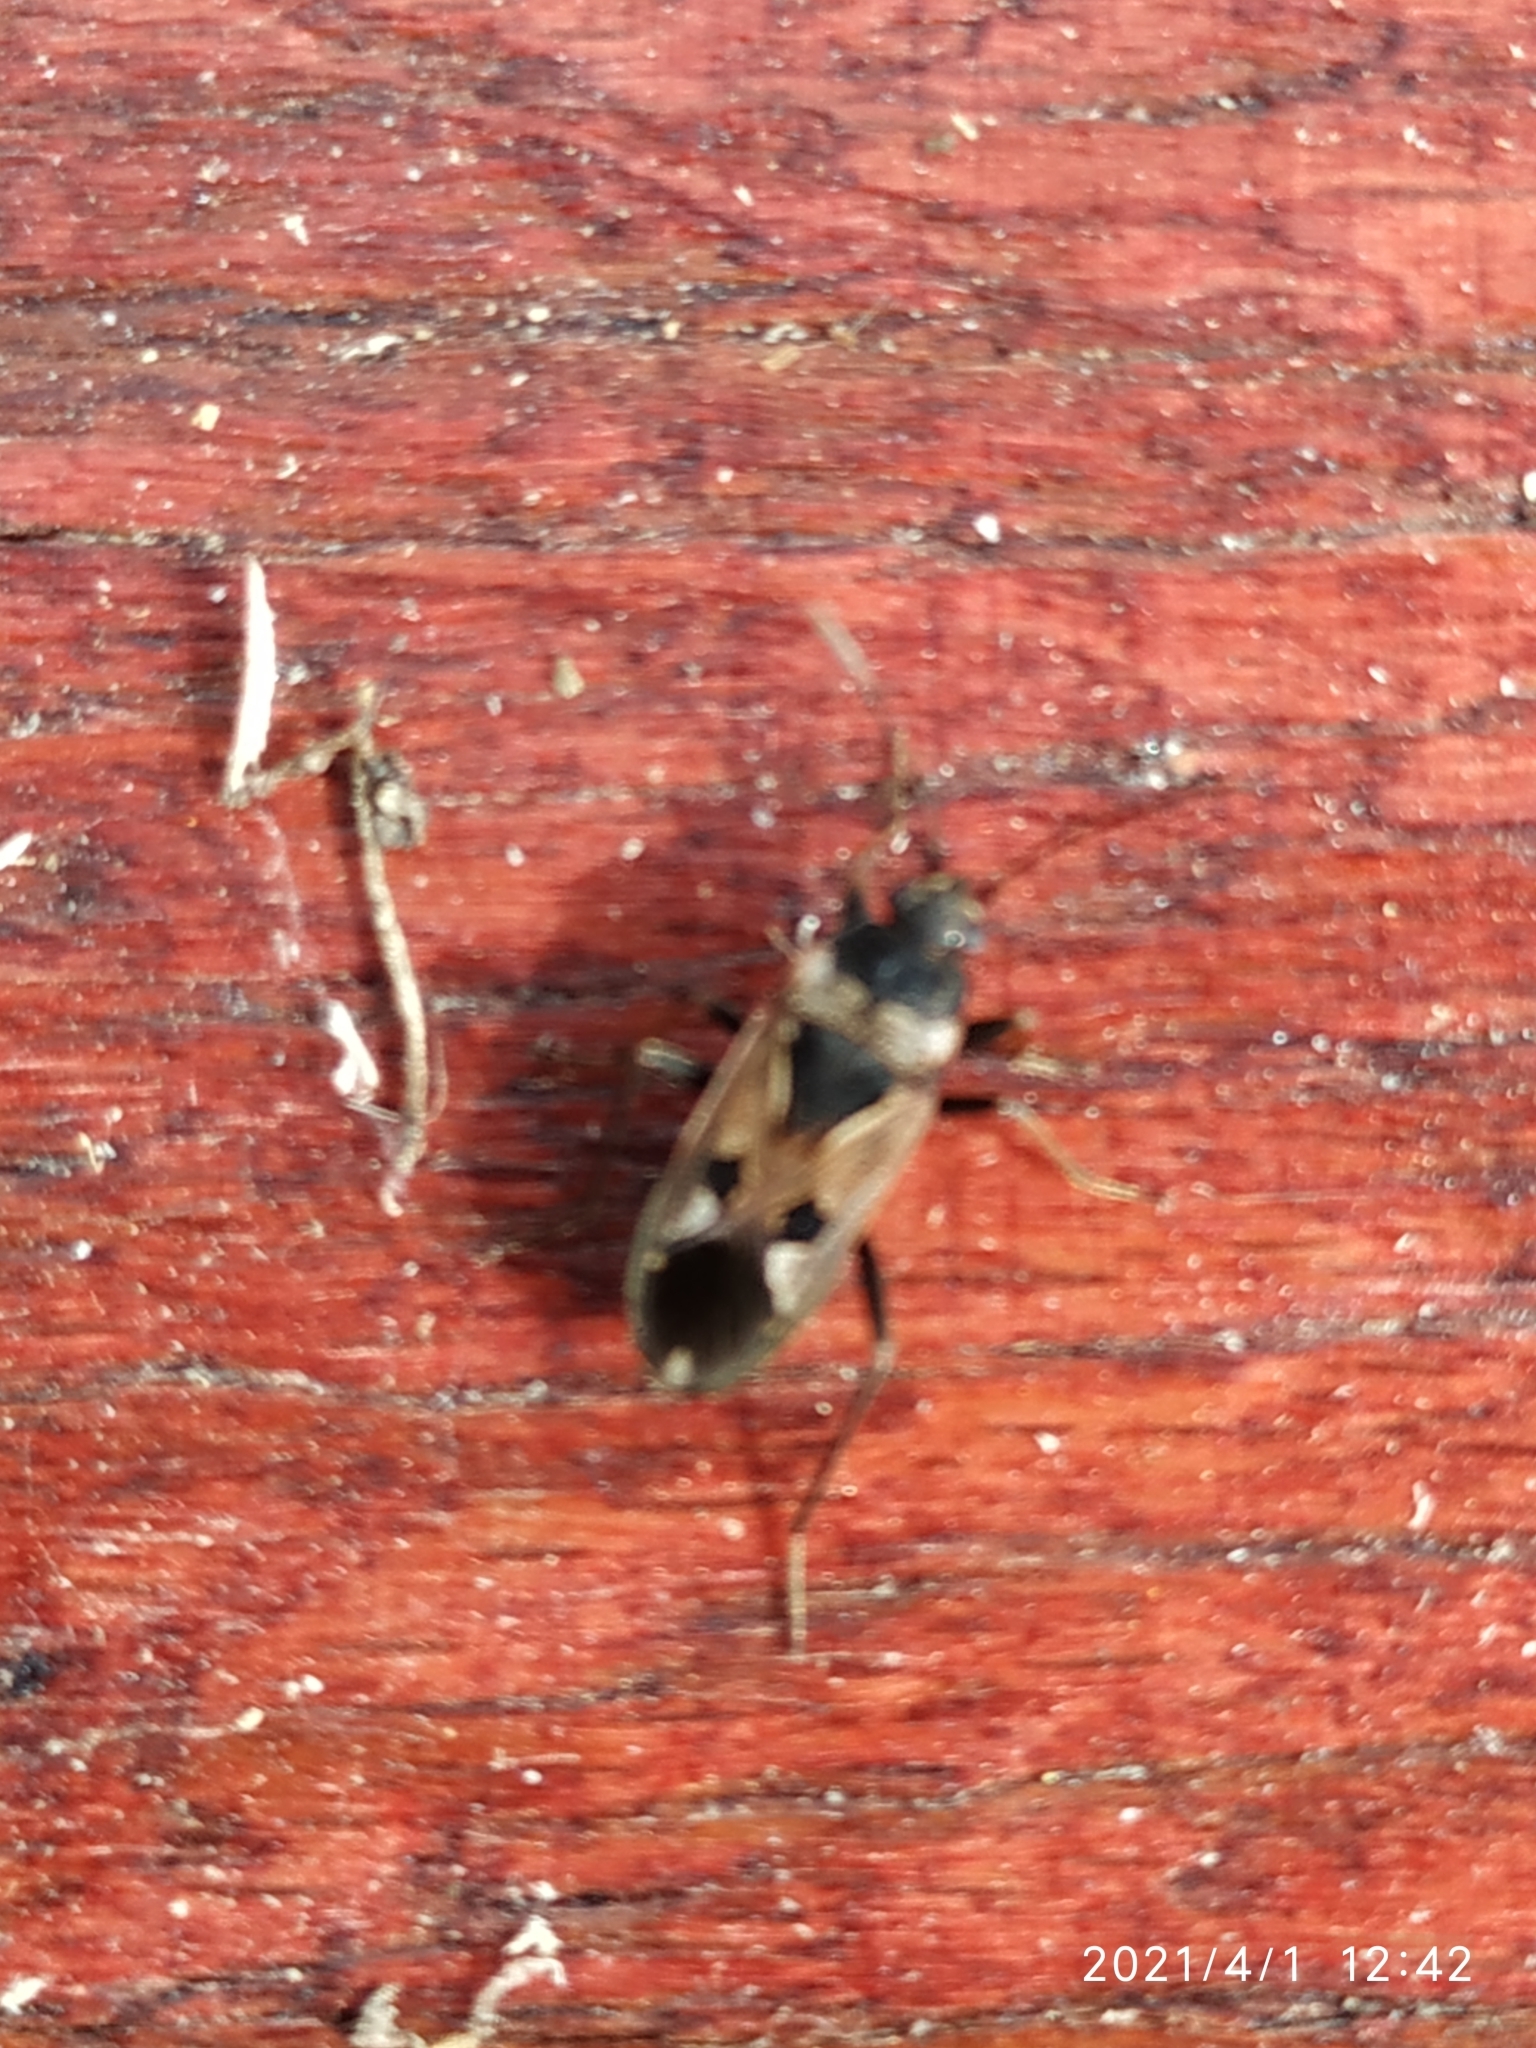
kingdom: Animalia
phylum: Arthropoda
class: Insecta
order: Hemiptera
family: Rhyparochromidae
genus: Rhyparochromus
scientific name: Rhyparochromus vulgaris
